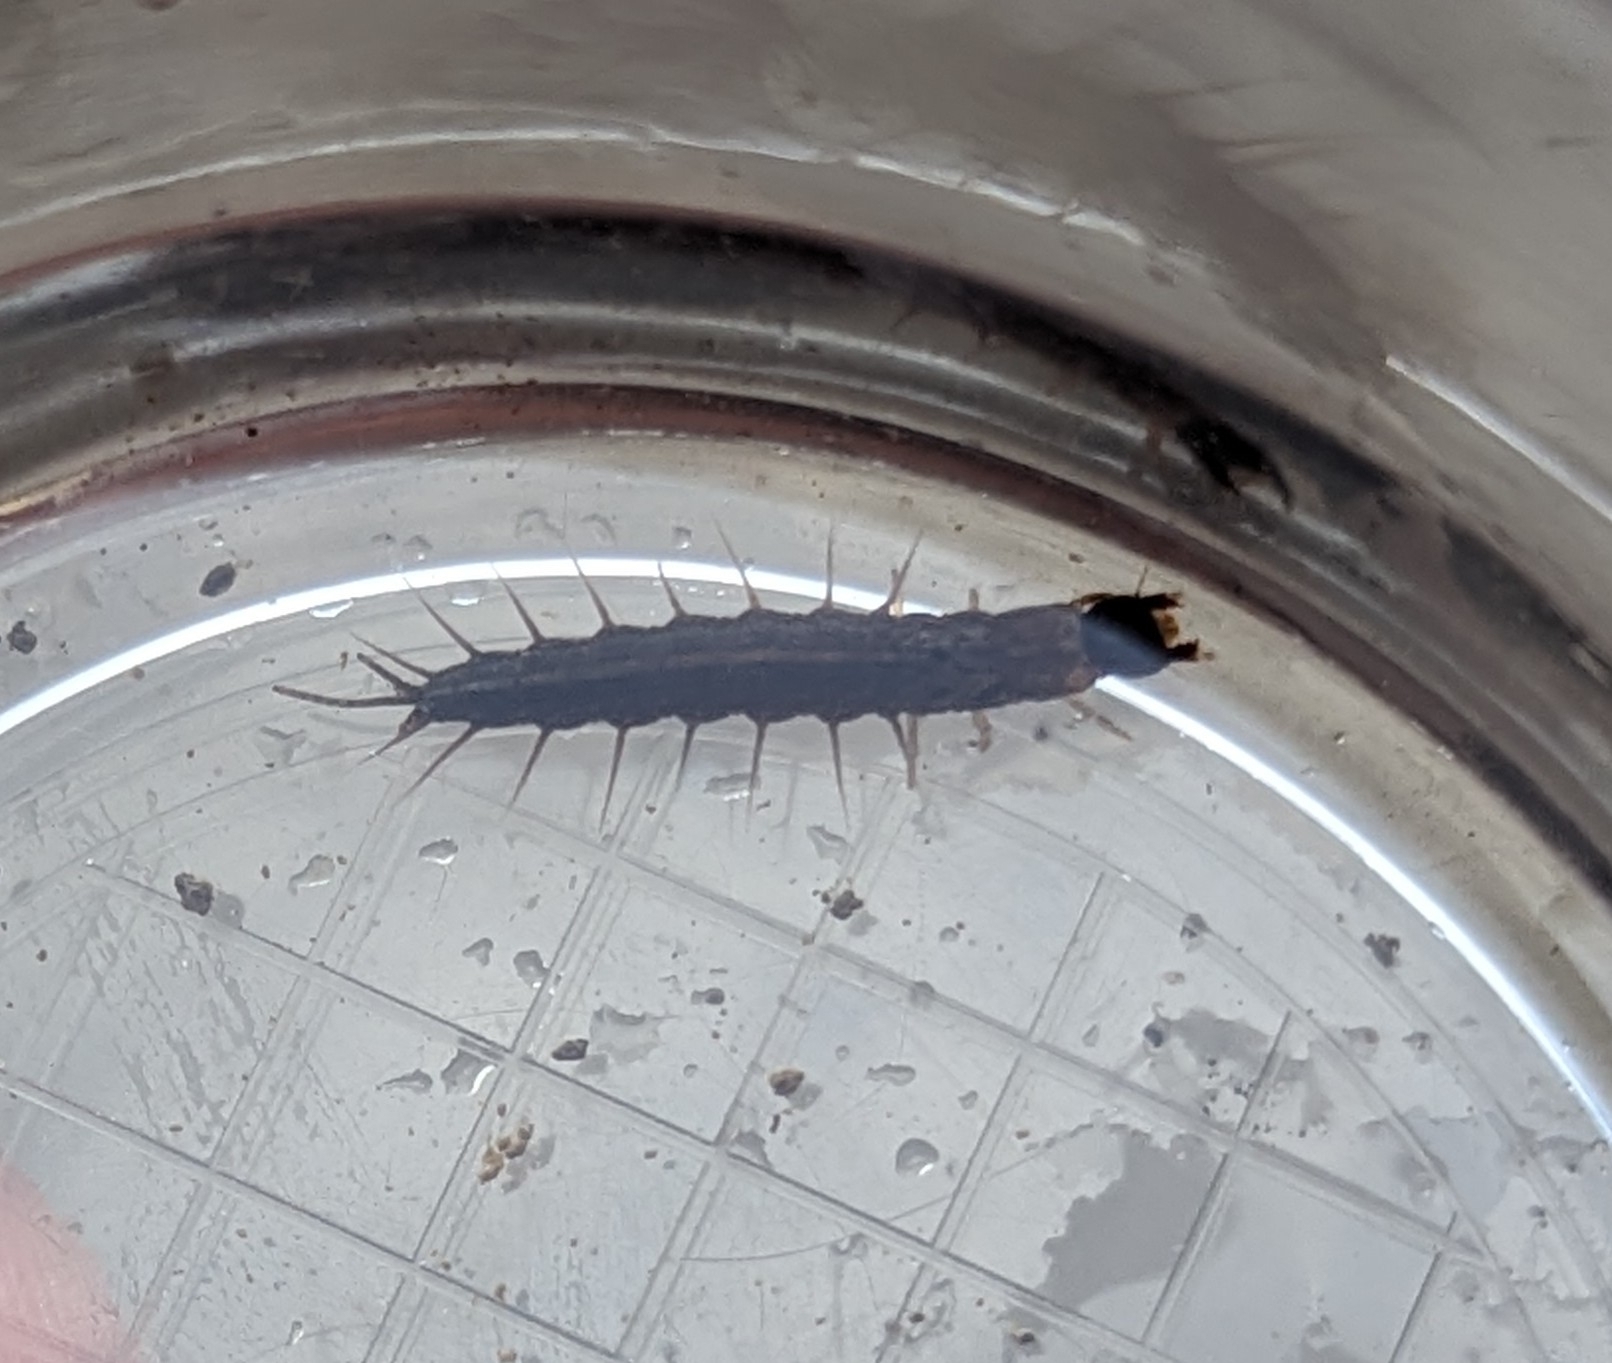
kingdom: Animalia
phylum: Arthropoda
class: Insecta
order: Megaloptera
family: Corydalidae
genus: Chauliodes
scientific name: Chauliodes pectinicornis
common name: Summer fishfly
